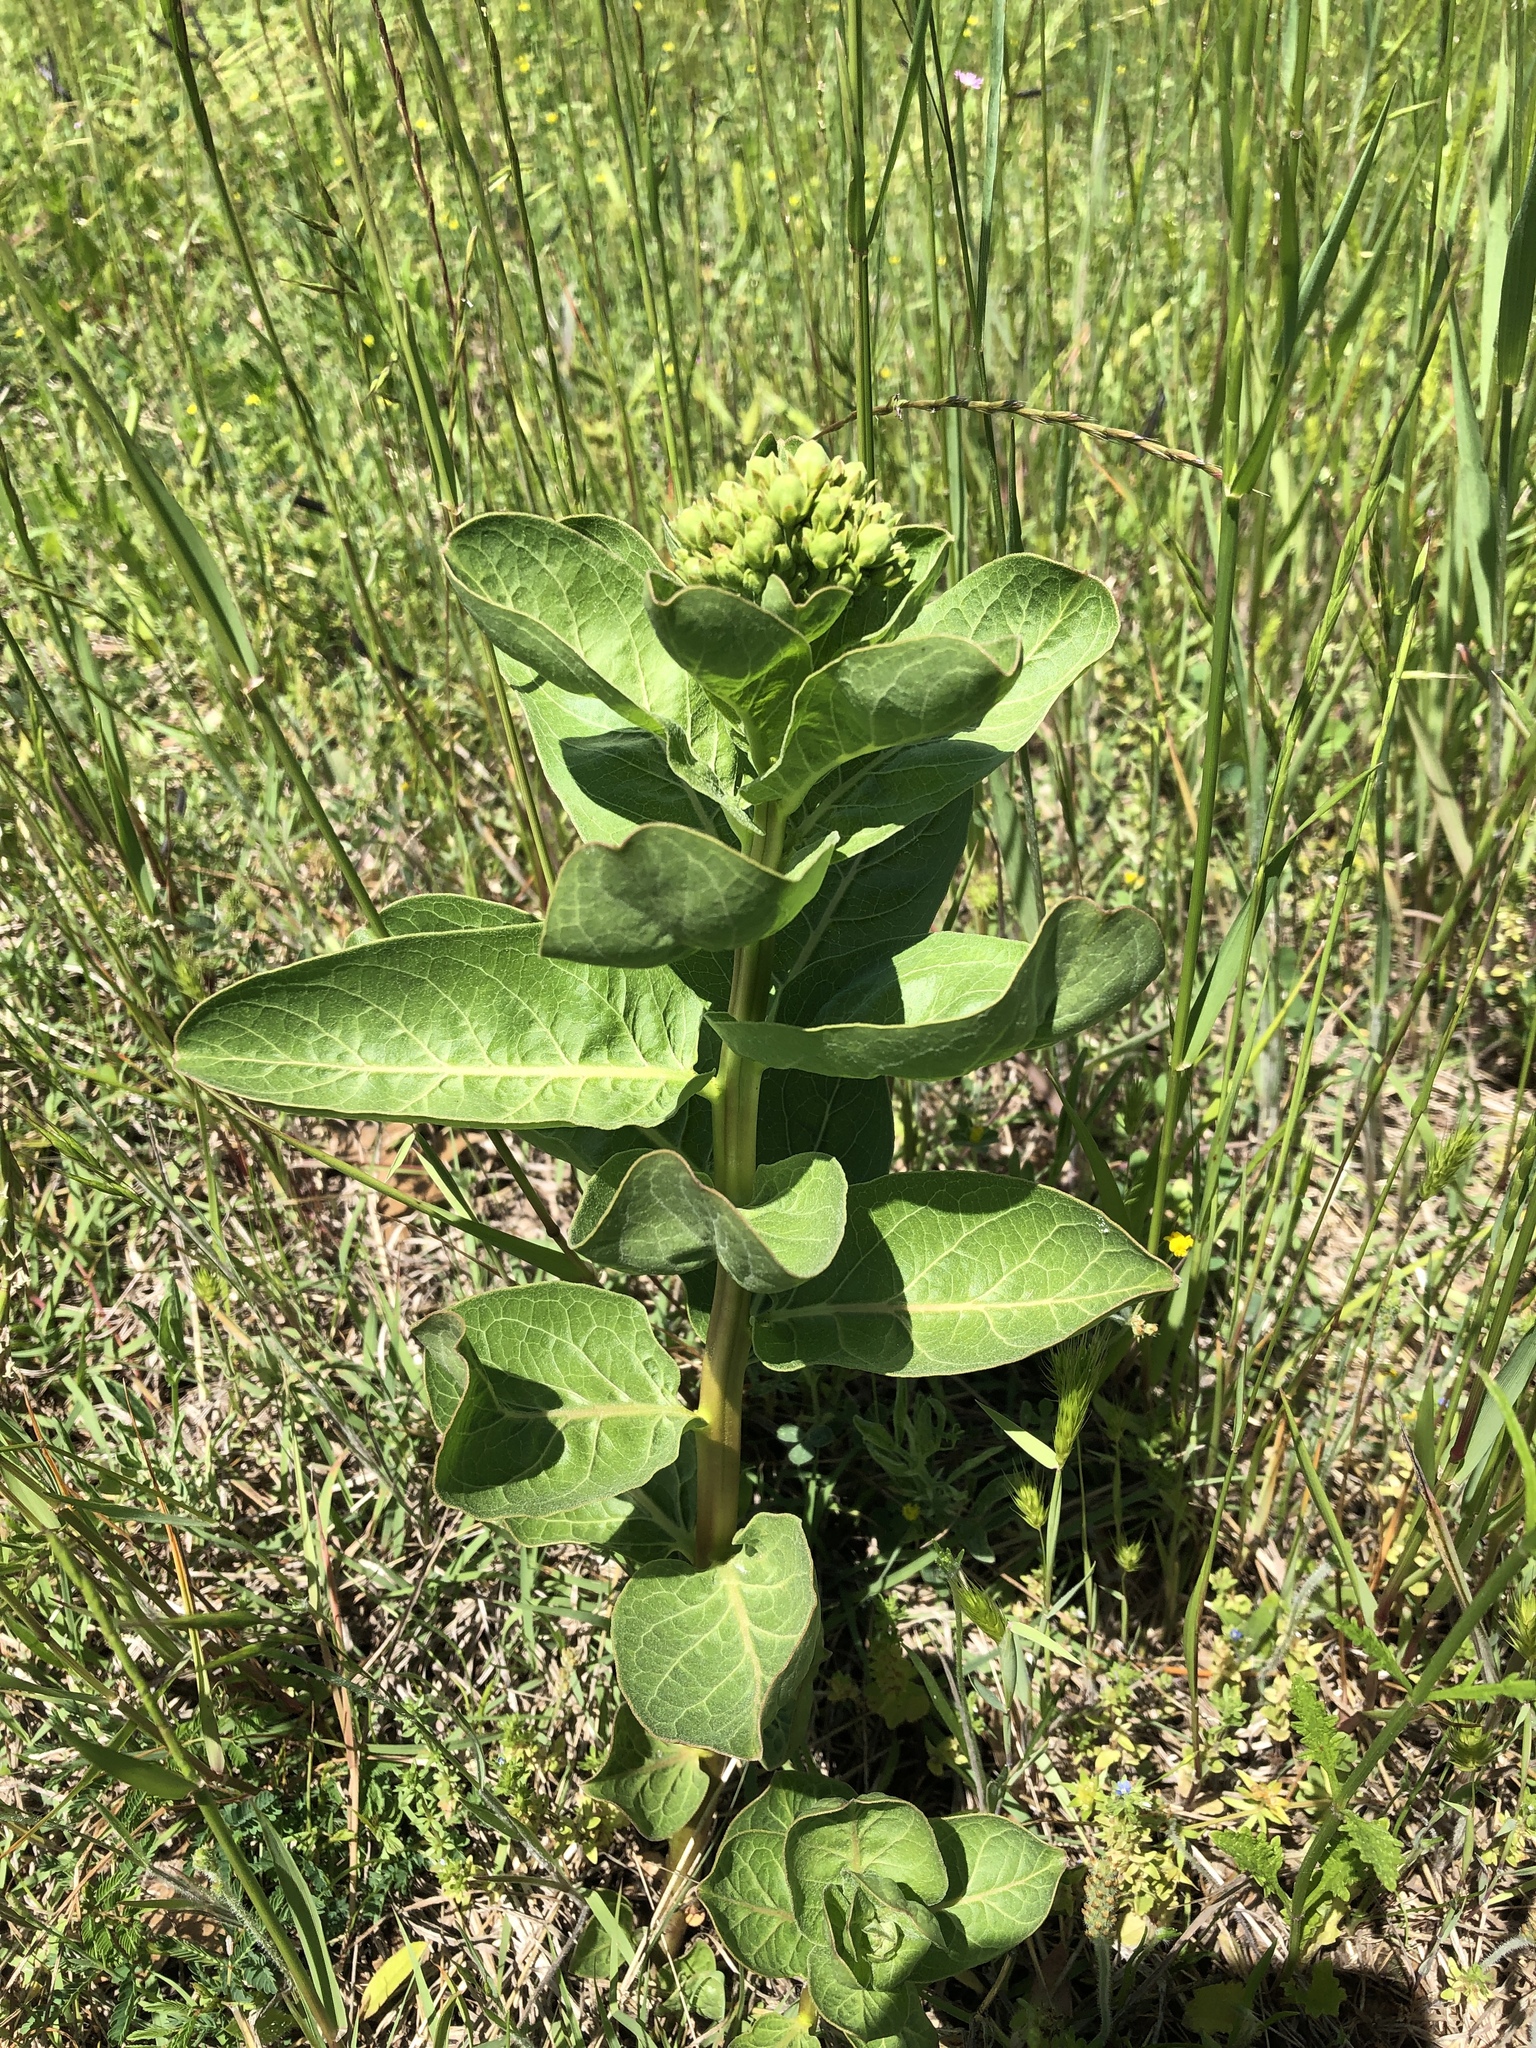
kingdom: Plantae
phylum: Tracheophyta
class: Magnoliopsida
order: Gentianales
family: Apocynaceae
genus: Asclepias
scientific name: Asclepias viridis
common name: Antelope-horns
